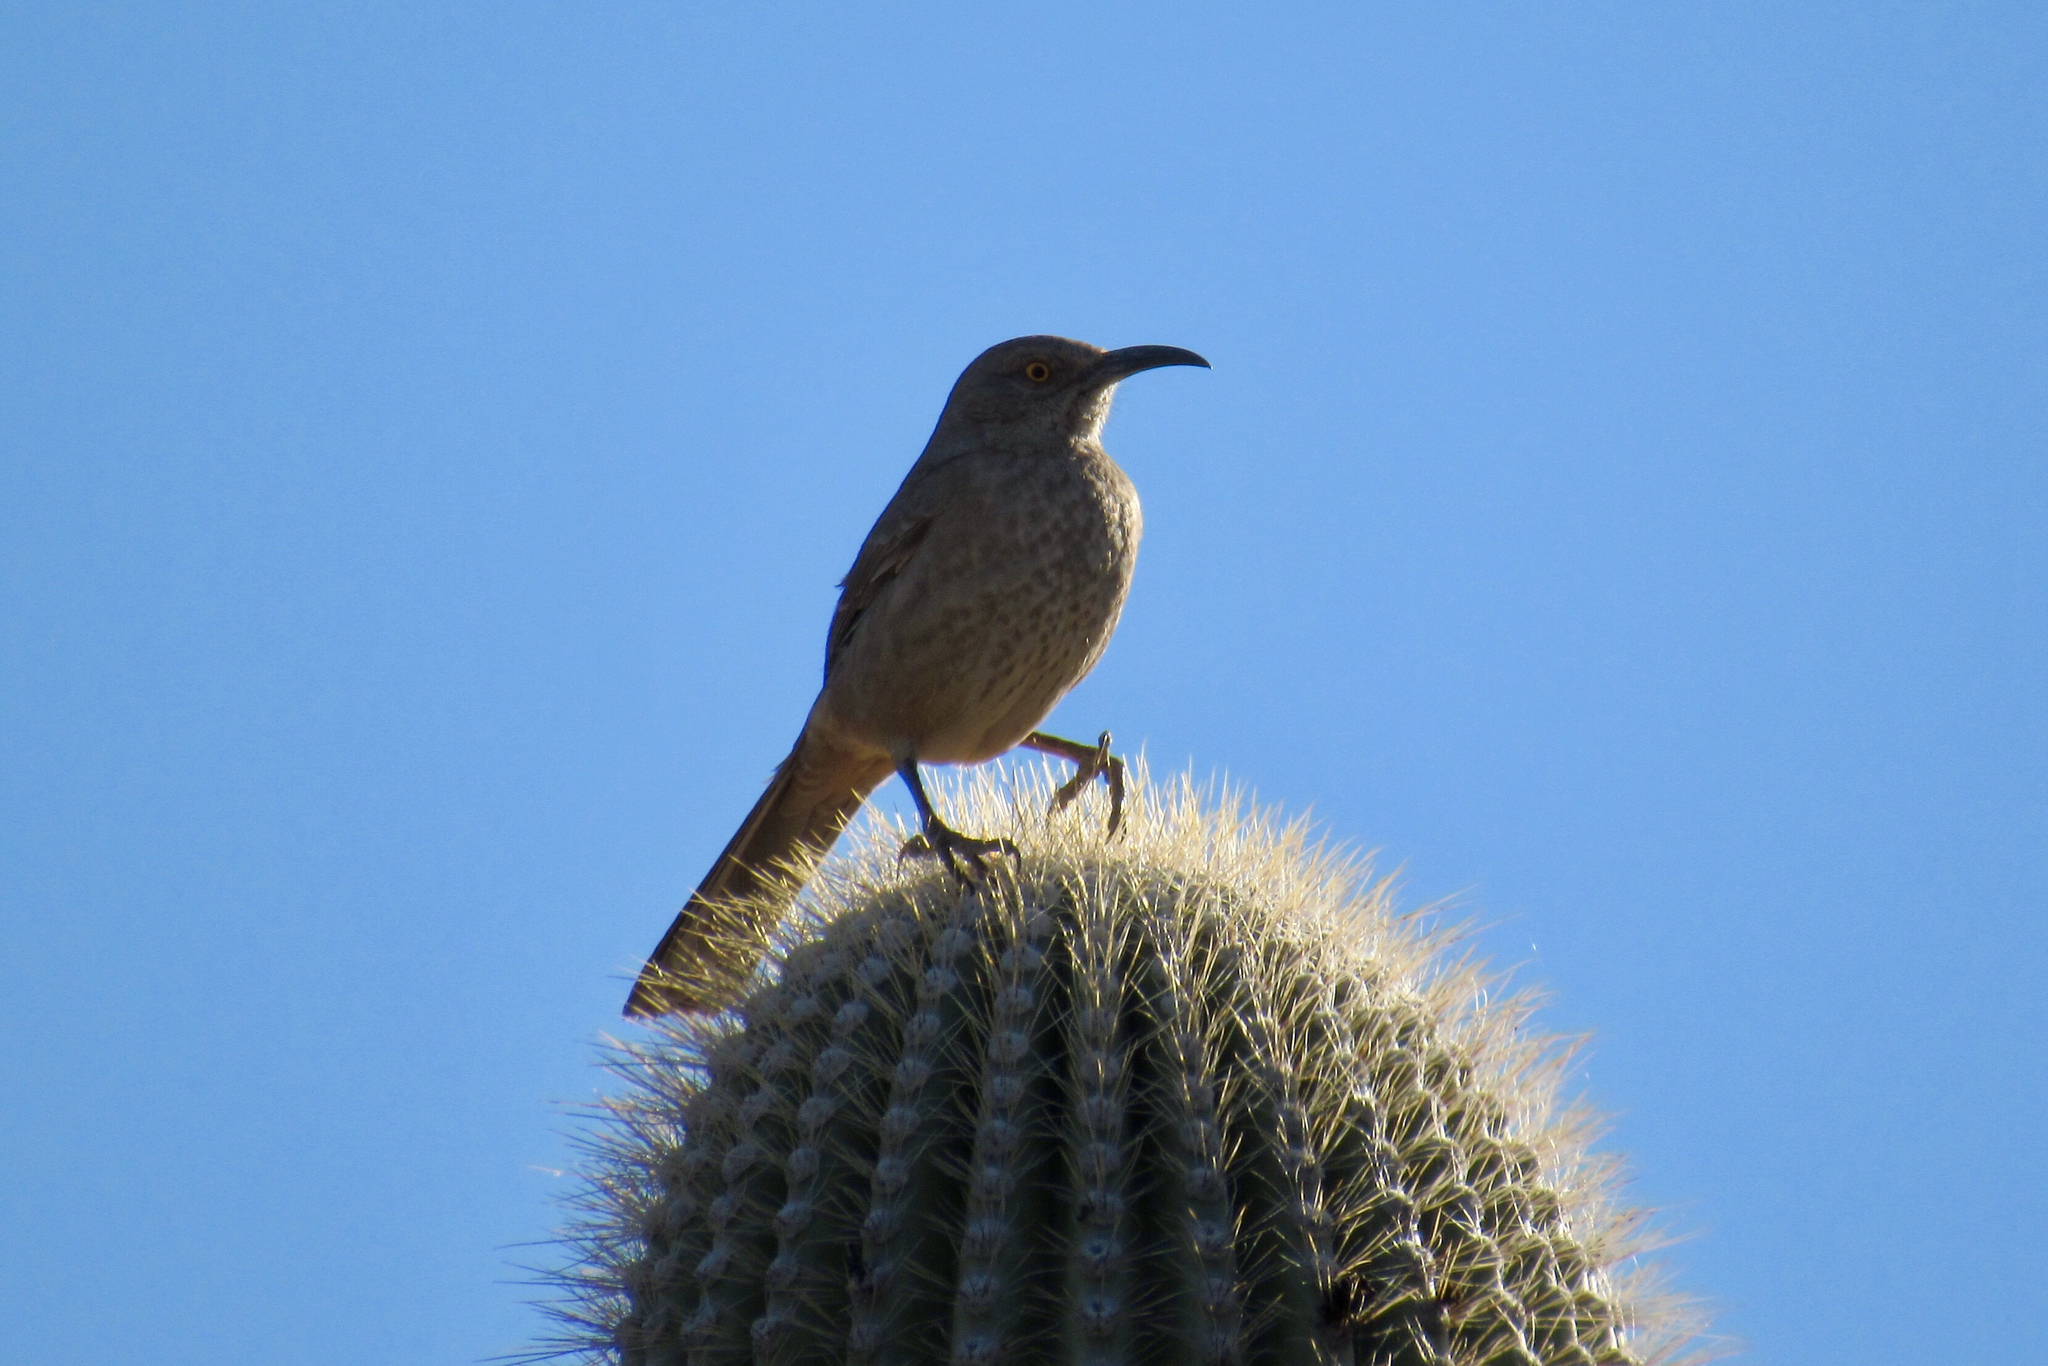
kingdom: Animalia
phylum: Chordata
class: Aves
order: Passeriformes
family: Mimidae
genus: Toxostoma
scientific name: Toxostoma curvirostre
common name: Curve-billed thrasher
